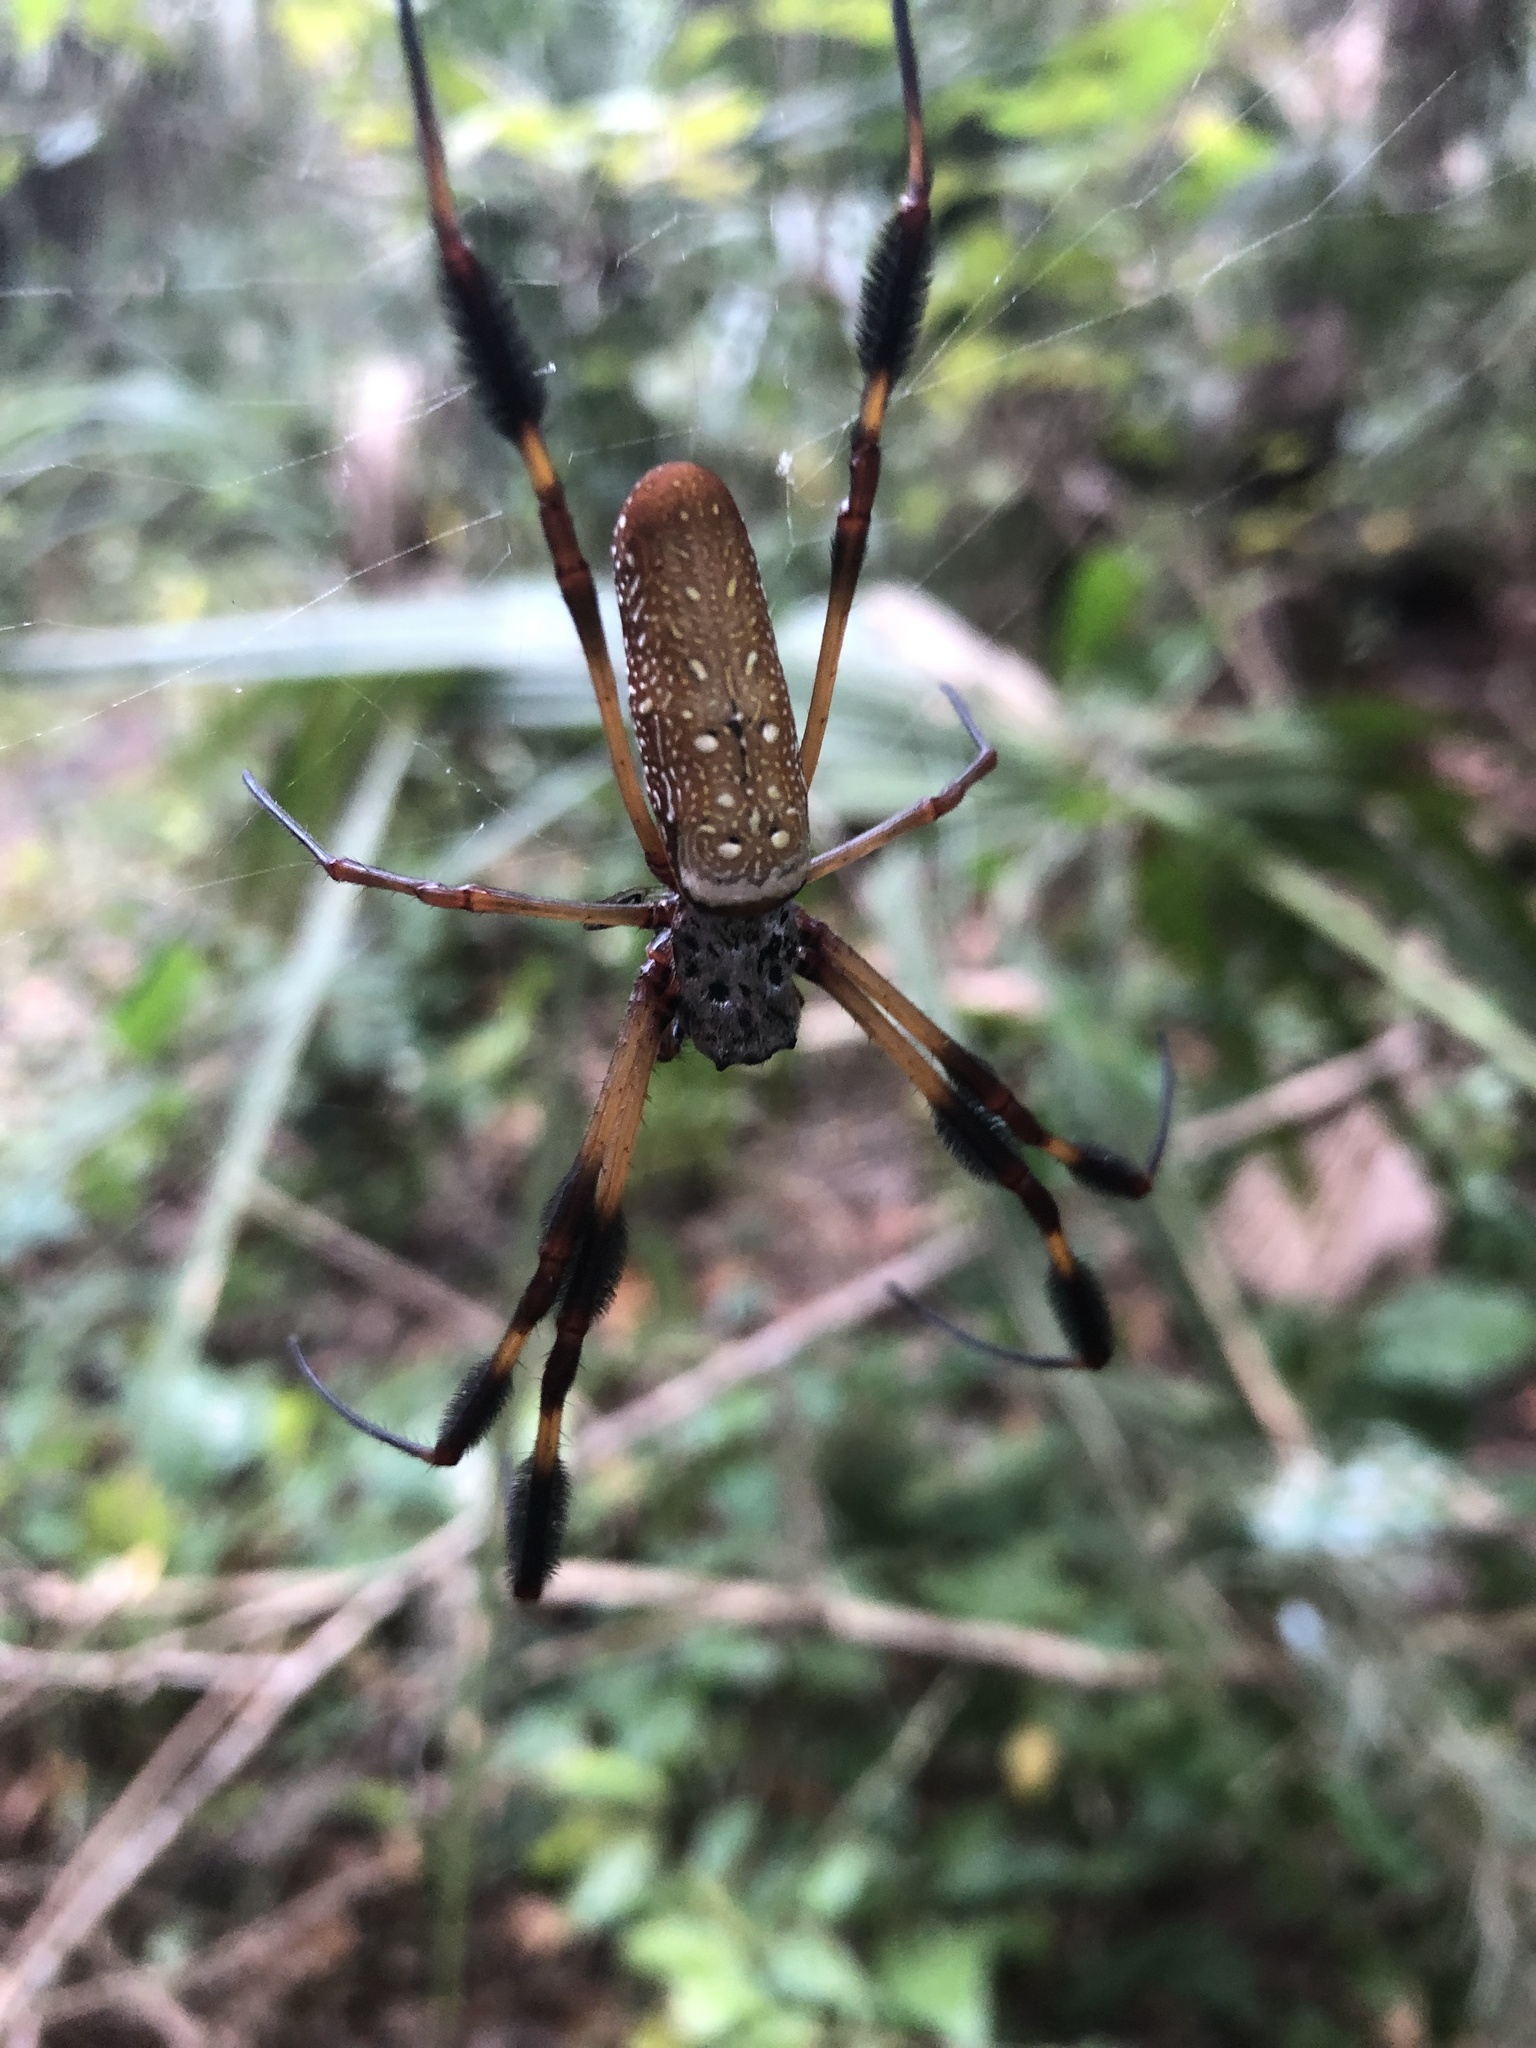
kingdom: Animalia
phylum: Arthropoda
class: Arachnida
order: Araneae
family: Araneidae
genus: Trichonephila
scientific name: Trichonephila clavipes
